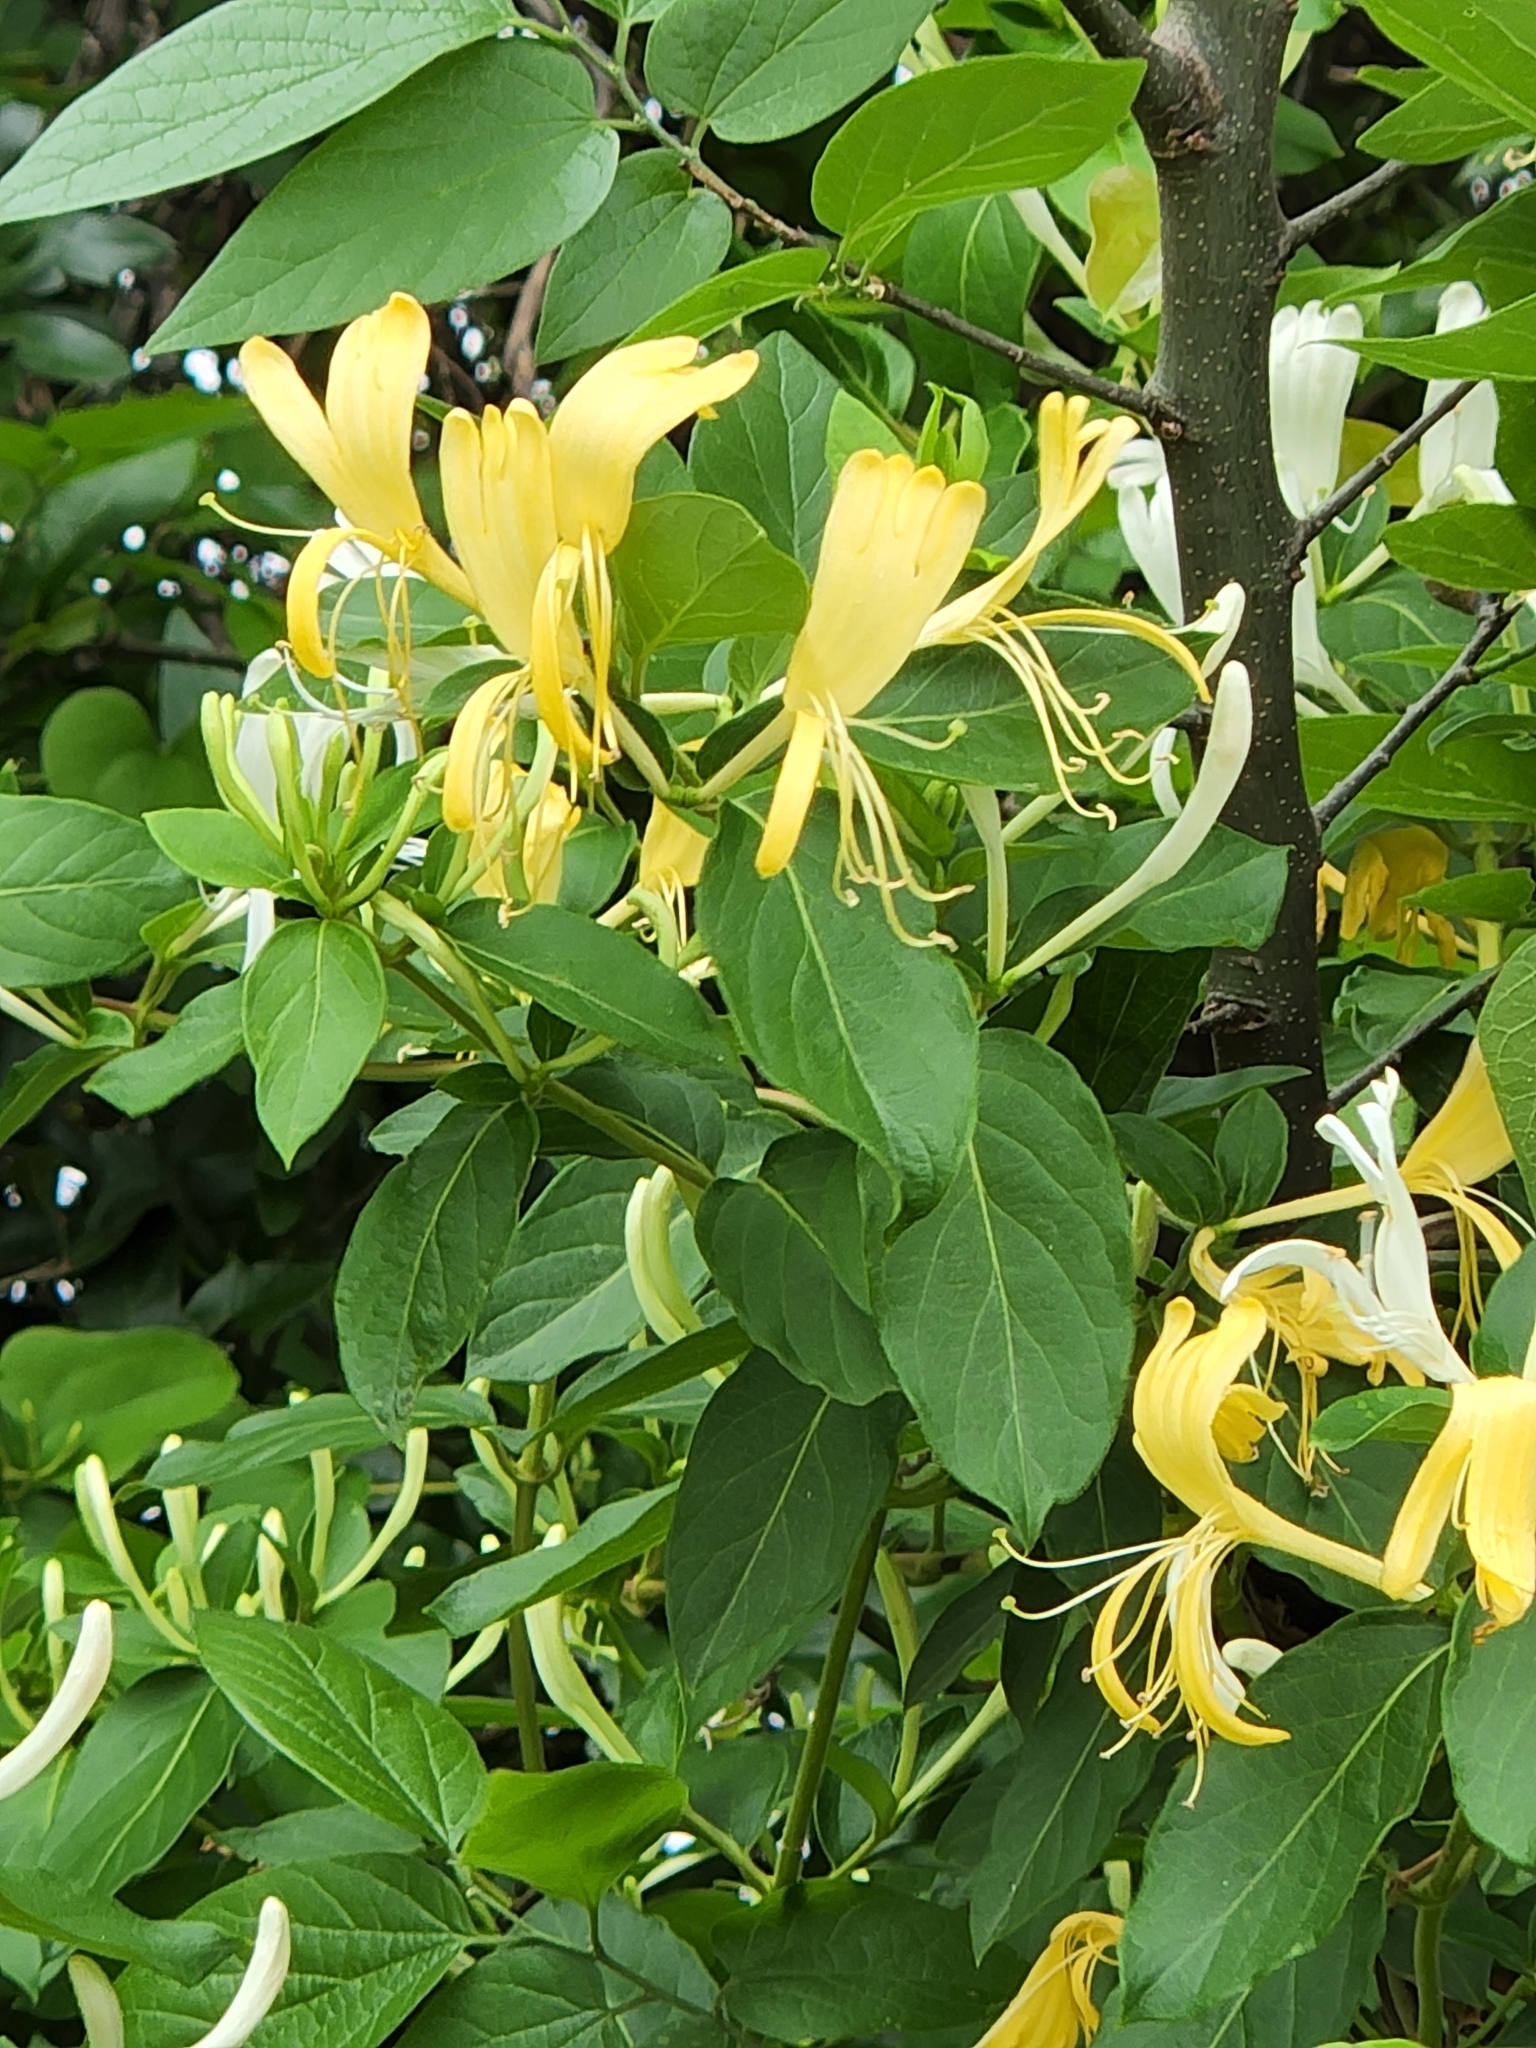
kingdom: Plantae
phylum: Tracheophyta
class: Magnoliopsida
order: Dipsacales
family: Caprifoliaceae
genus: Lonicera
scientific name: Lonicera japonica
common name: Japanese honeysuckle
